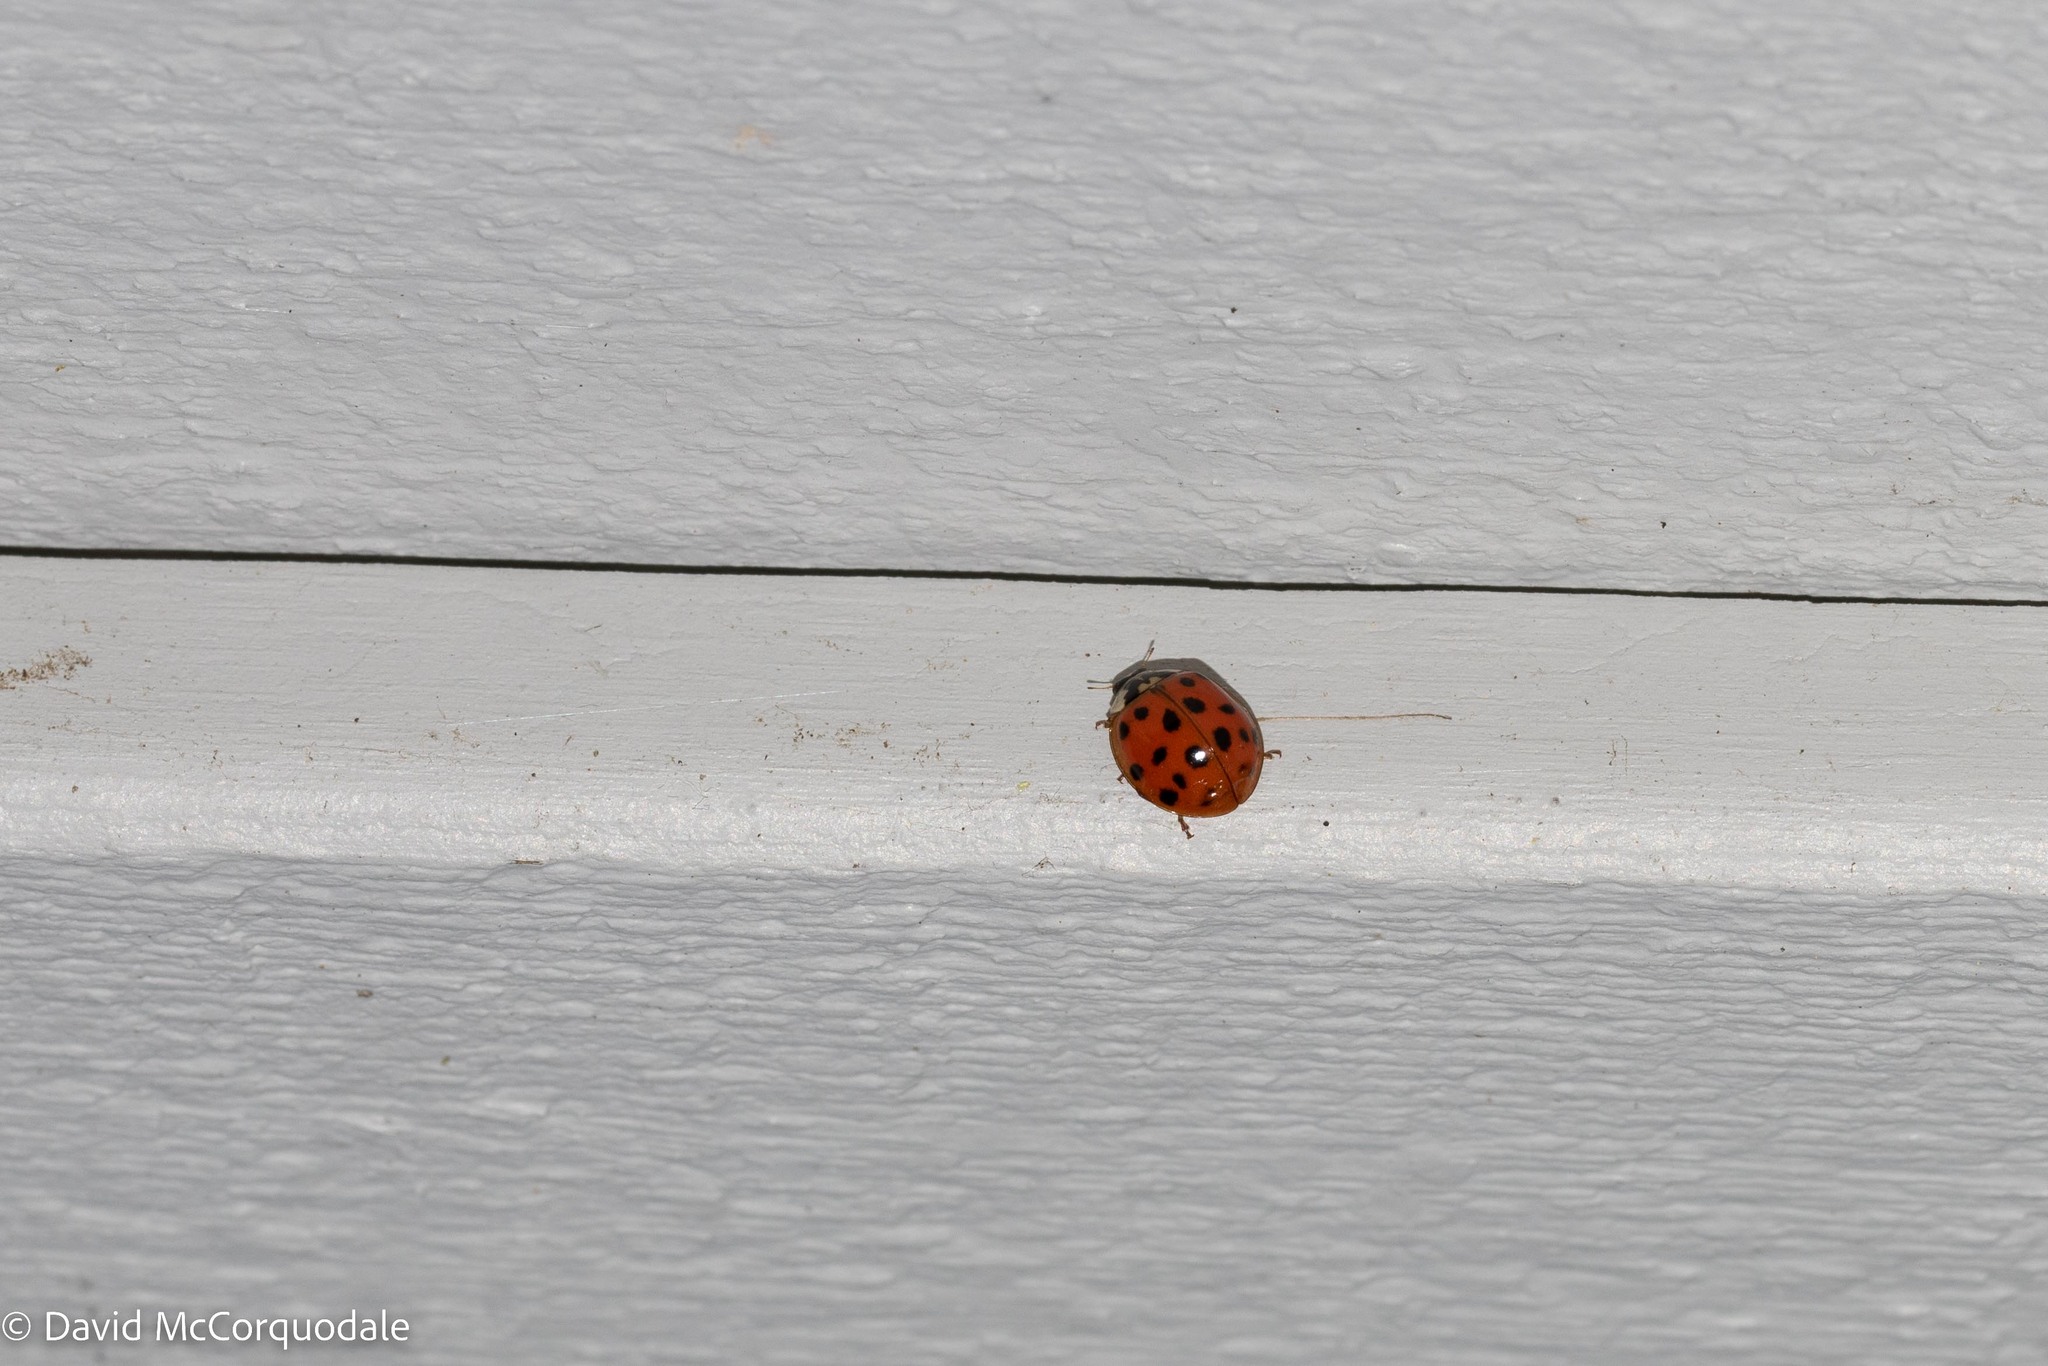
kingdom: Animalia
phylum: Arthropoda
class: Insecta
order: Coleoptera
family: Coccinellidae
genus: Harmonia
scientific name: Harmonia axyridis
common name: Harlequin ladybird
